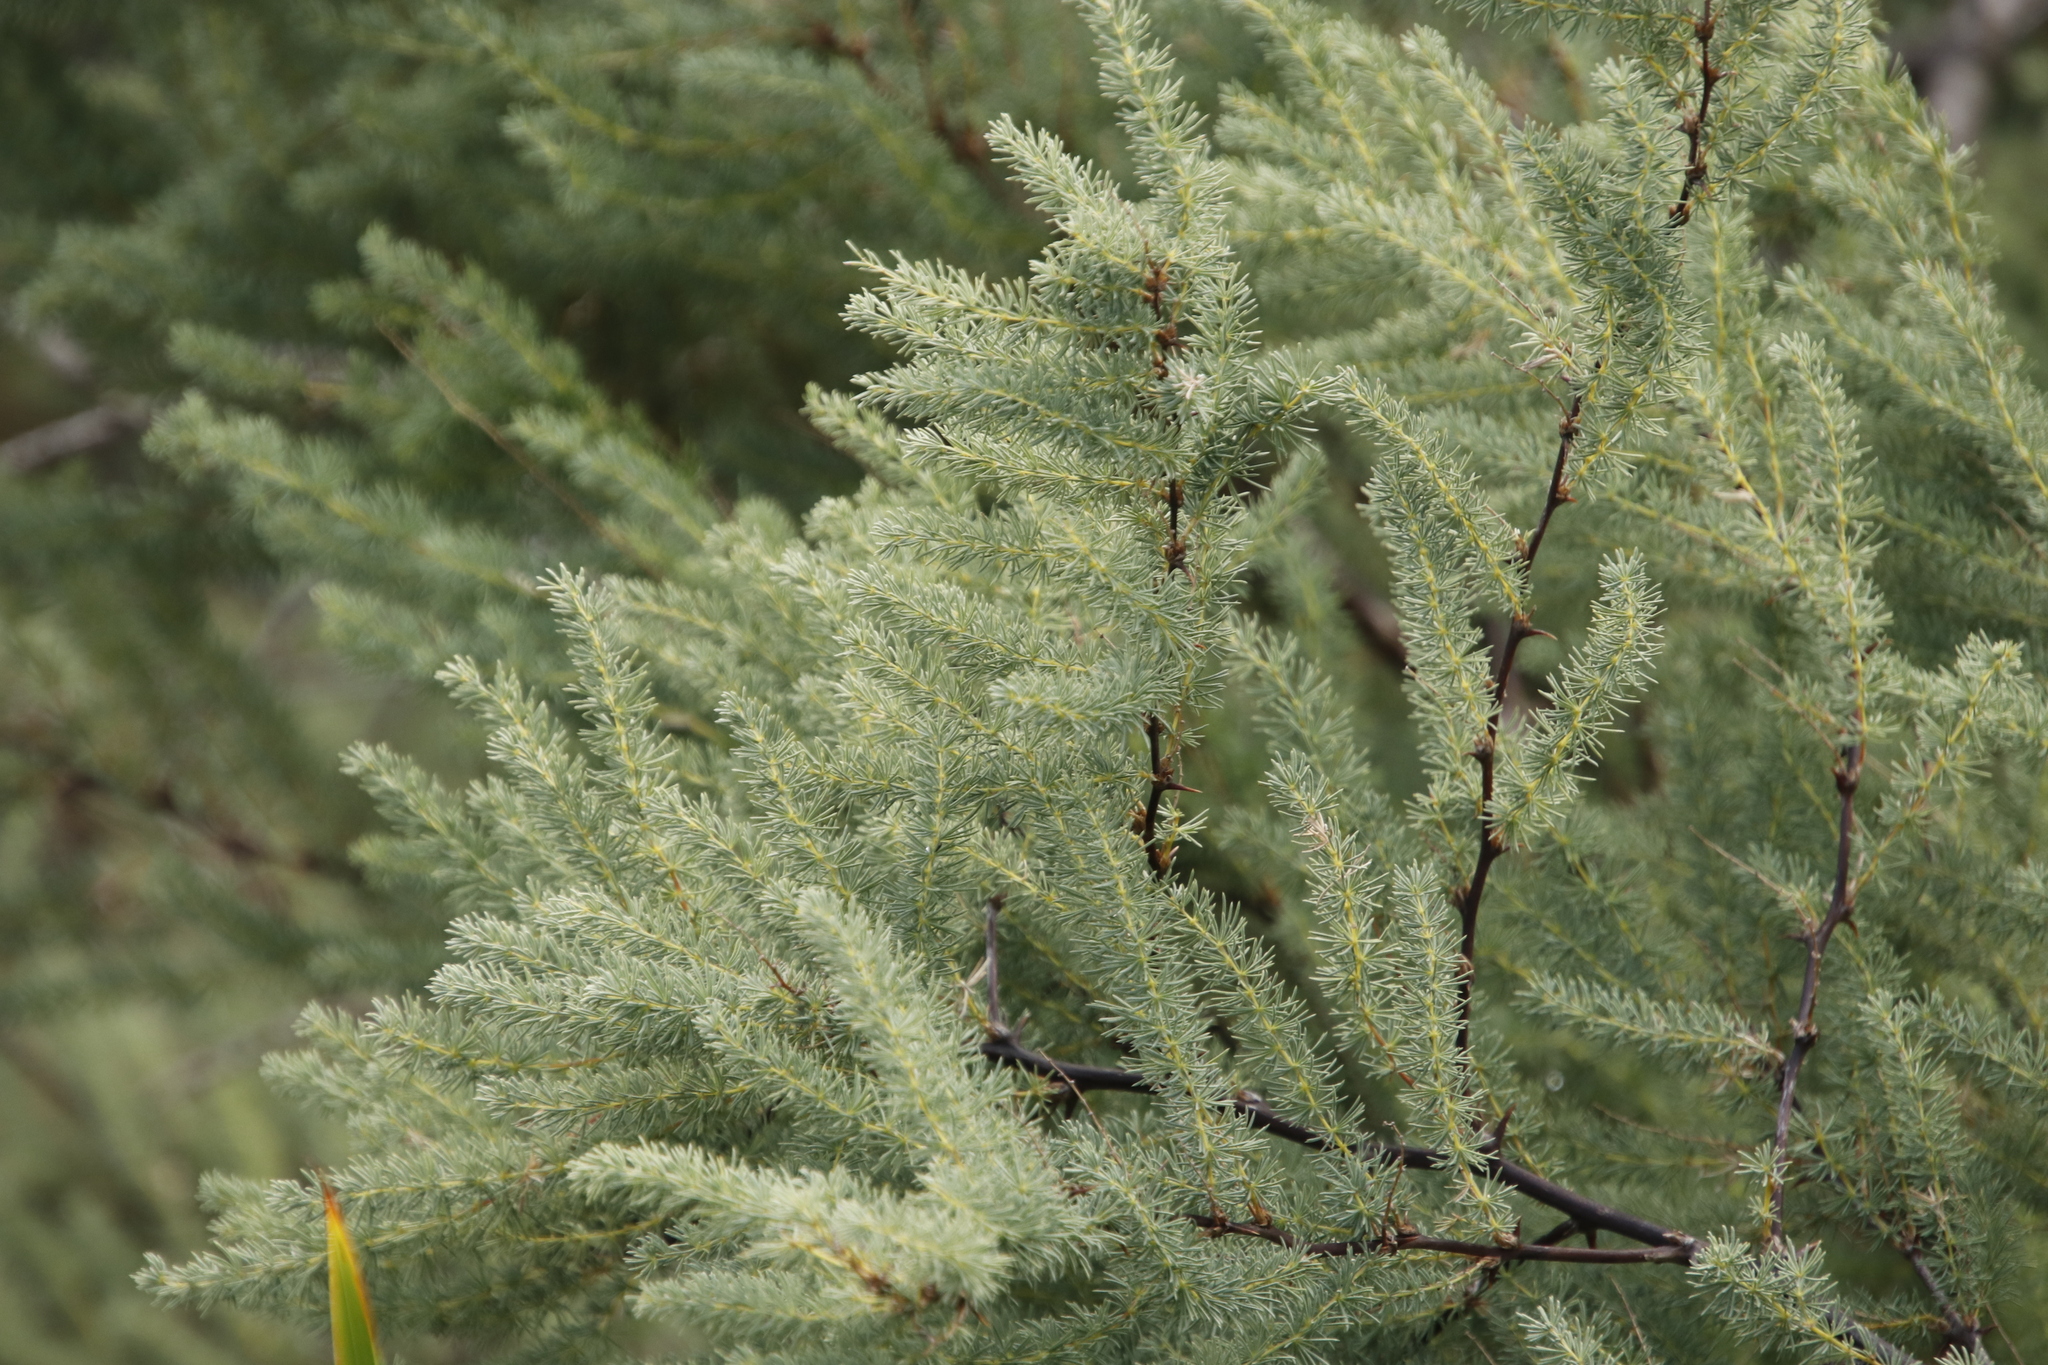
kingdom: Plantae
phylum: Tracheophyta
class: Liliopsida
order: Asparagales
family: Asparagaceae
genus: Asparagus
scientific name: Asparagus rubicundus
